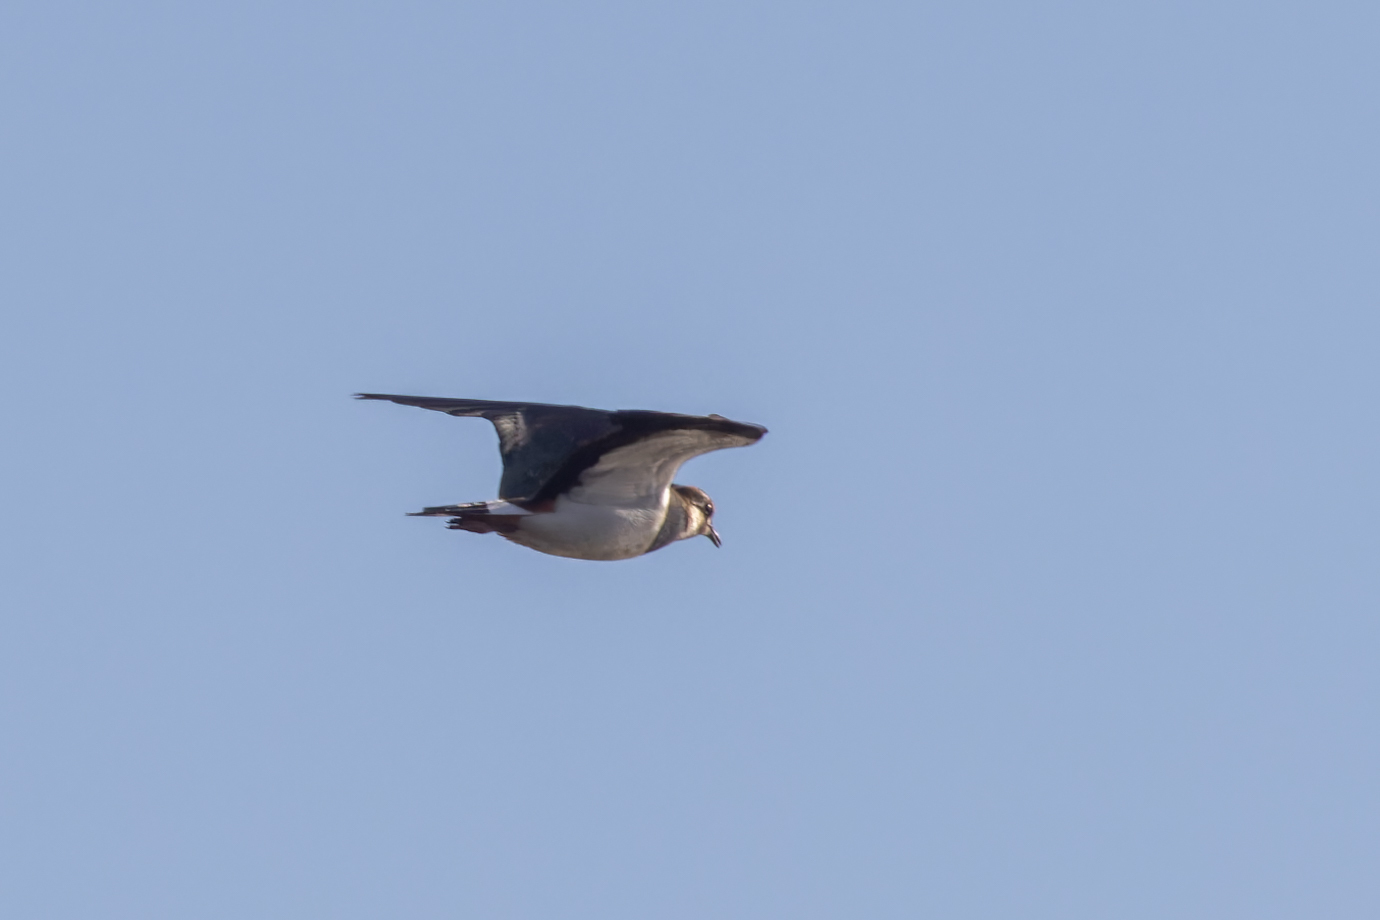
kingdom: Animalia
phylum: Chordata
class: Aves
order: Charadriiformes
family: Charadriidae
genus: Vanellus
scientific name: Vanellus vanellus
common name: Northern lapwing
